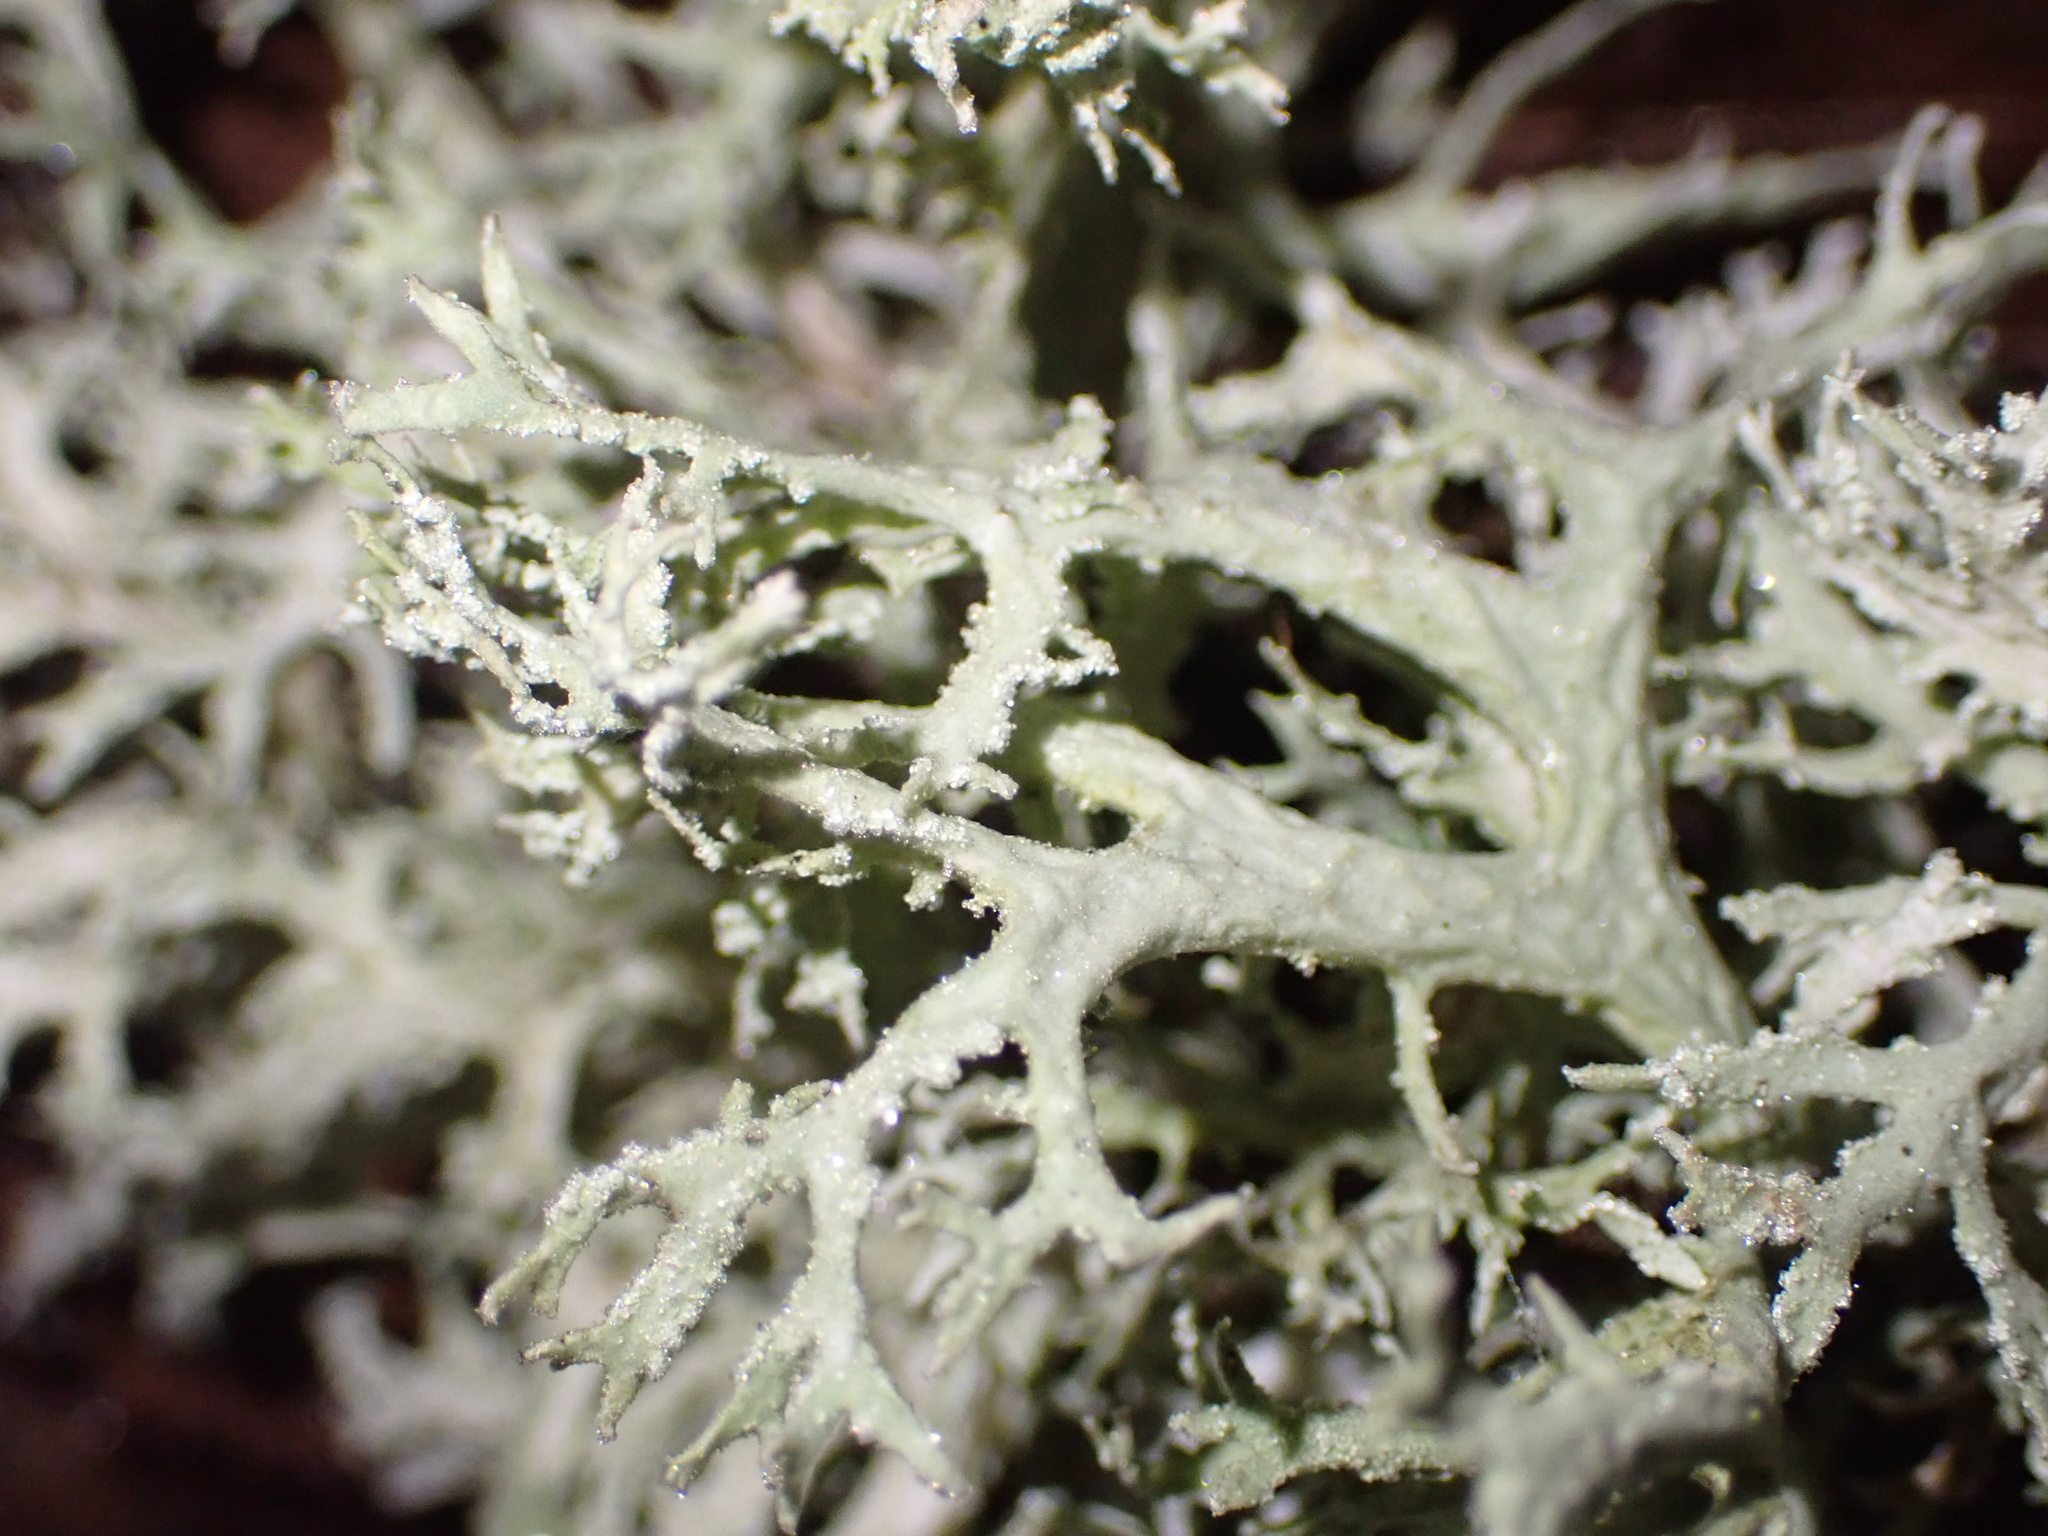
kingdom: Fungi
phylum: Ascomycota
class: Lecanoromycetes
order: Lecanorales
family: Parmeliaceae
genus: Evernia
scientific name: Evernia prunastri
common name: Oak moss
